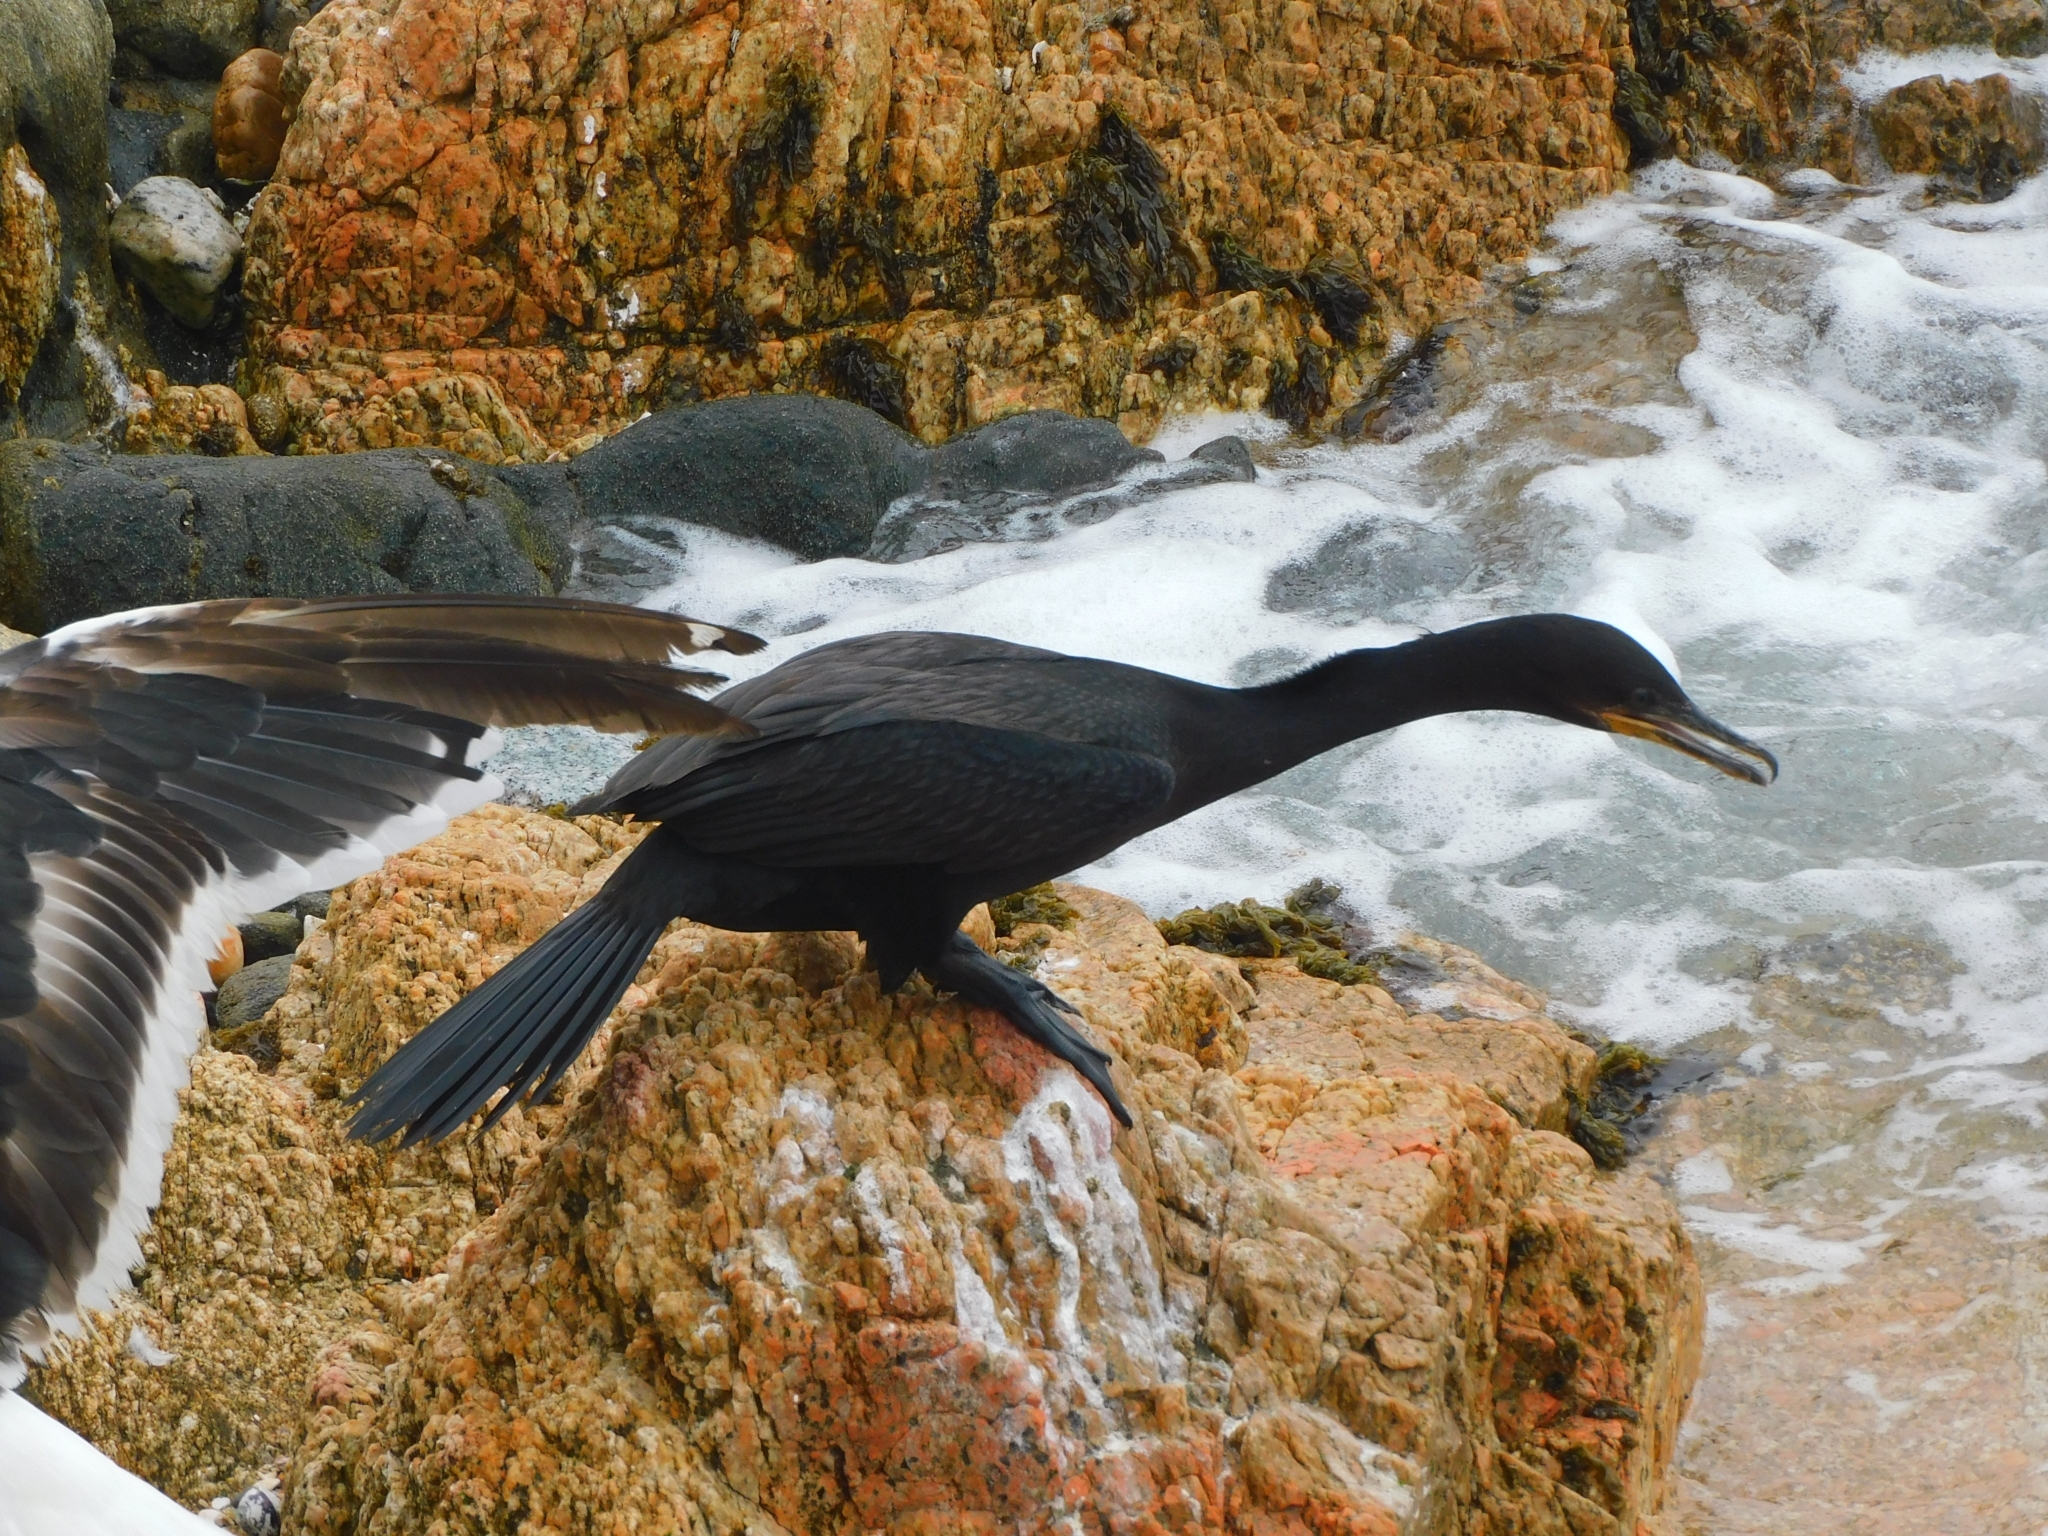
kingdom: Animalia
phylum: Chordata
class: Aves
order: Suliformes
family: Phalacrocoracidae
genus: Phalacrocorax
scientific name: Phalacrocorax brasilianus
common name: Neotropic cormorant
